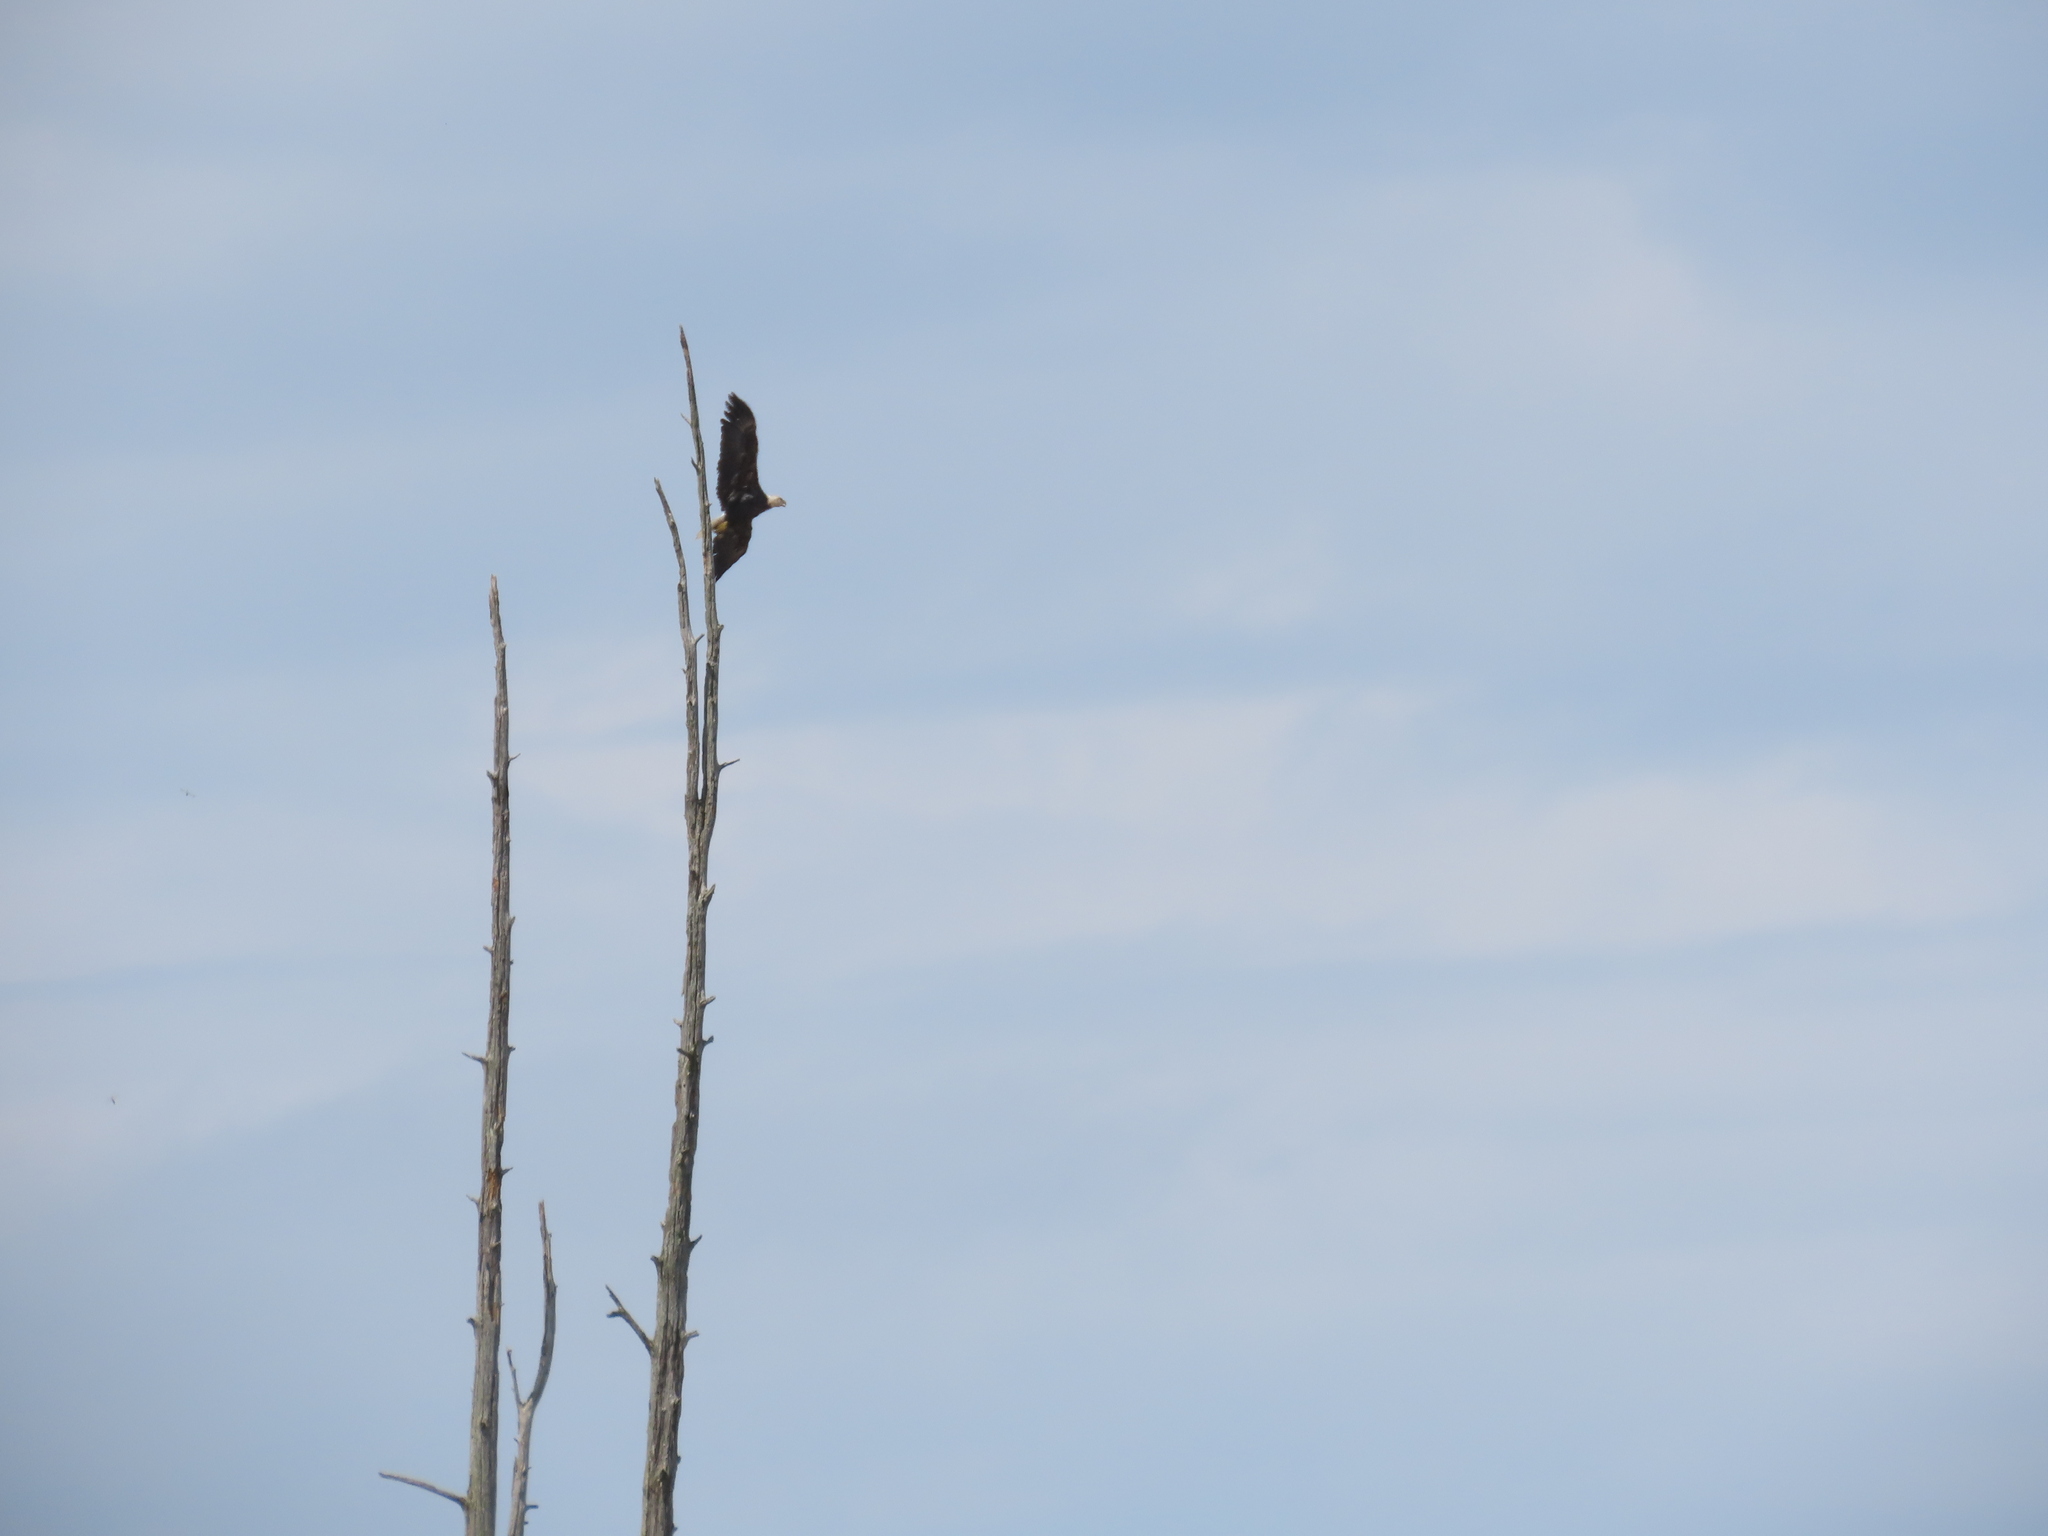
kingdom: Animalia
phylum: Chordata
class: Aves
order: Accipitriformes
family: Accipitridae
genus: Haliaeetus
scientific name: Haliaeetus leucocephalus
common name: Bald eagle
